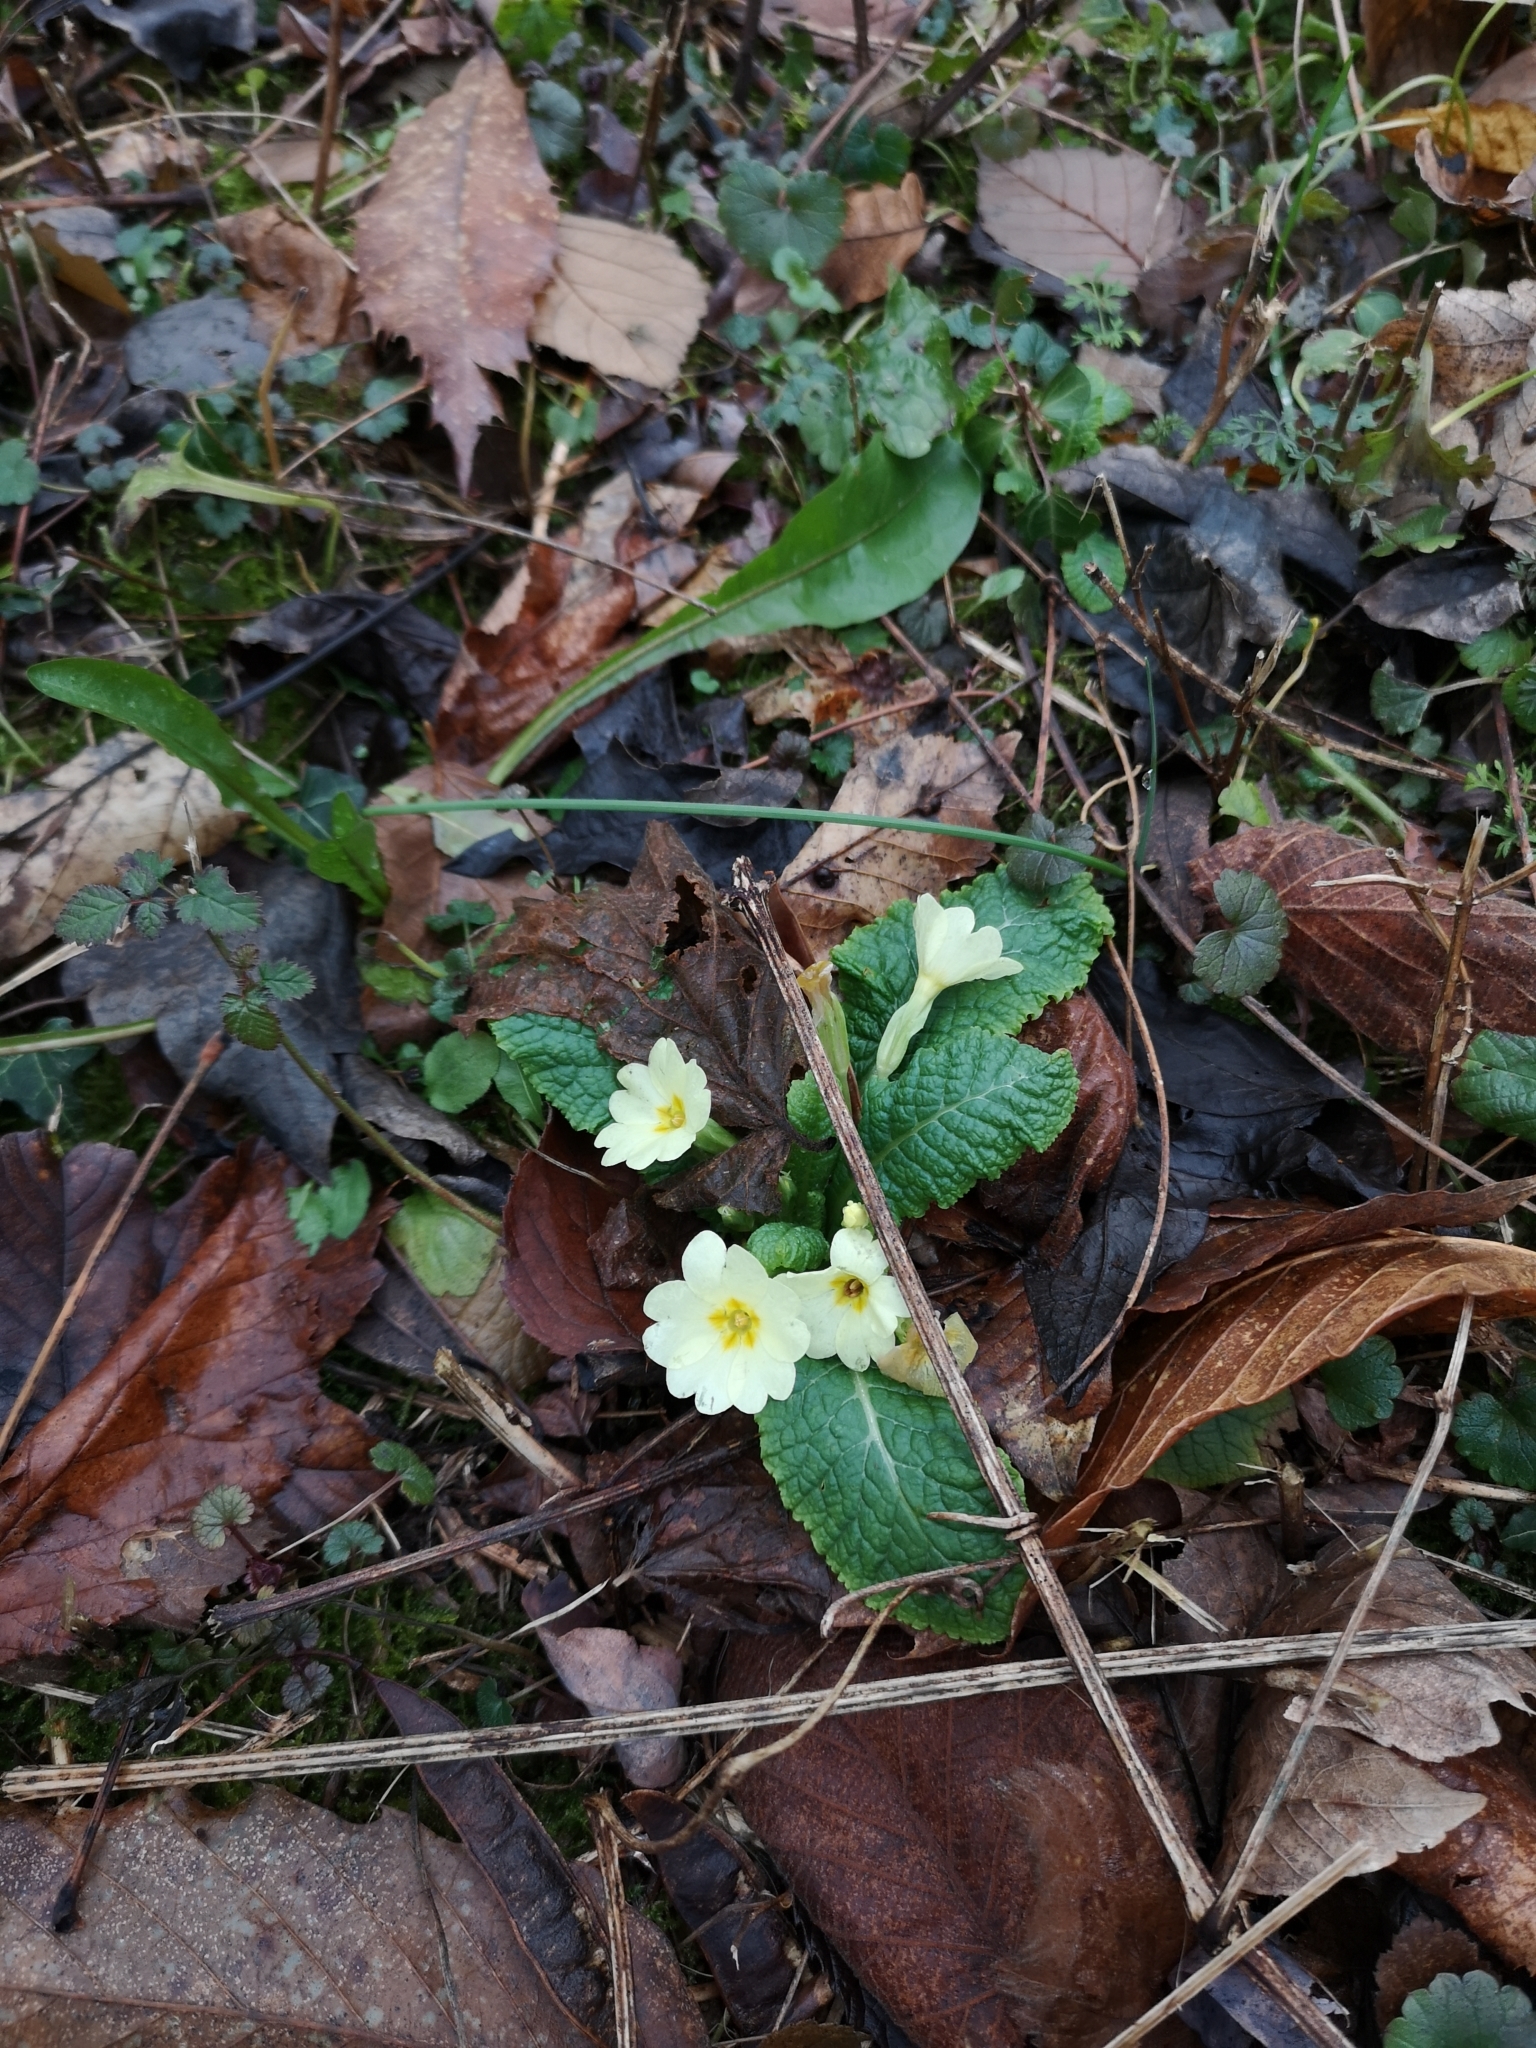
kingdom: Plantae
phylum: Tracheophyta
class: Magnoliopsida
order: Ericales
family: Primulaceae
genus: Primula
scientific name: Primula vulgaris
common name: Primrose
